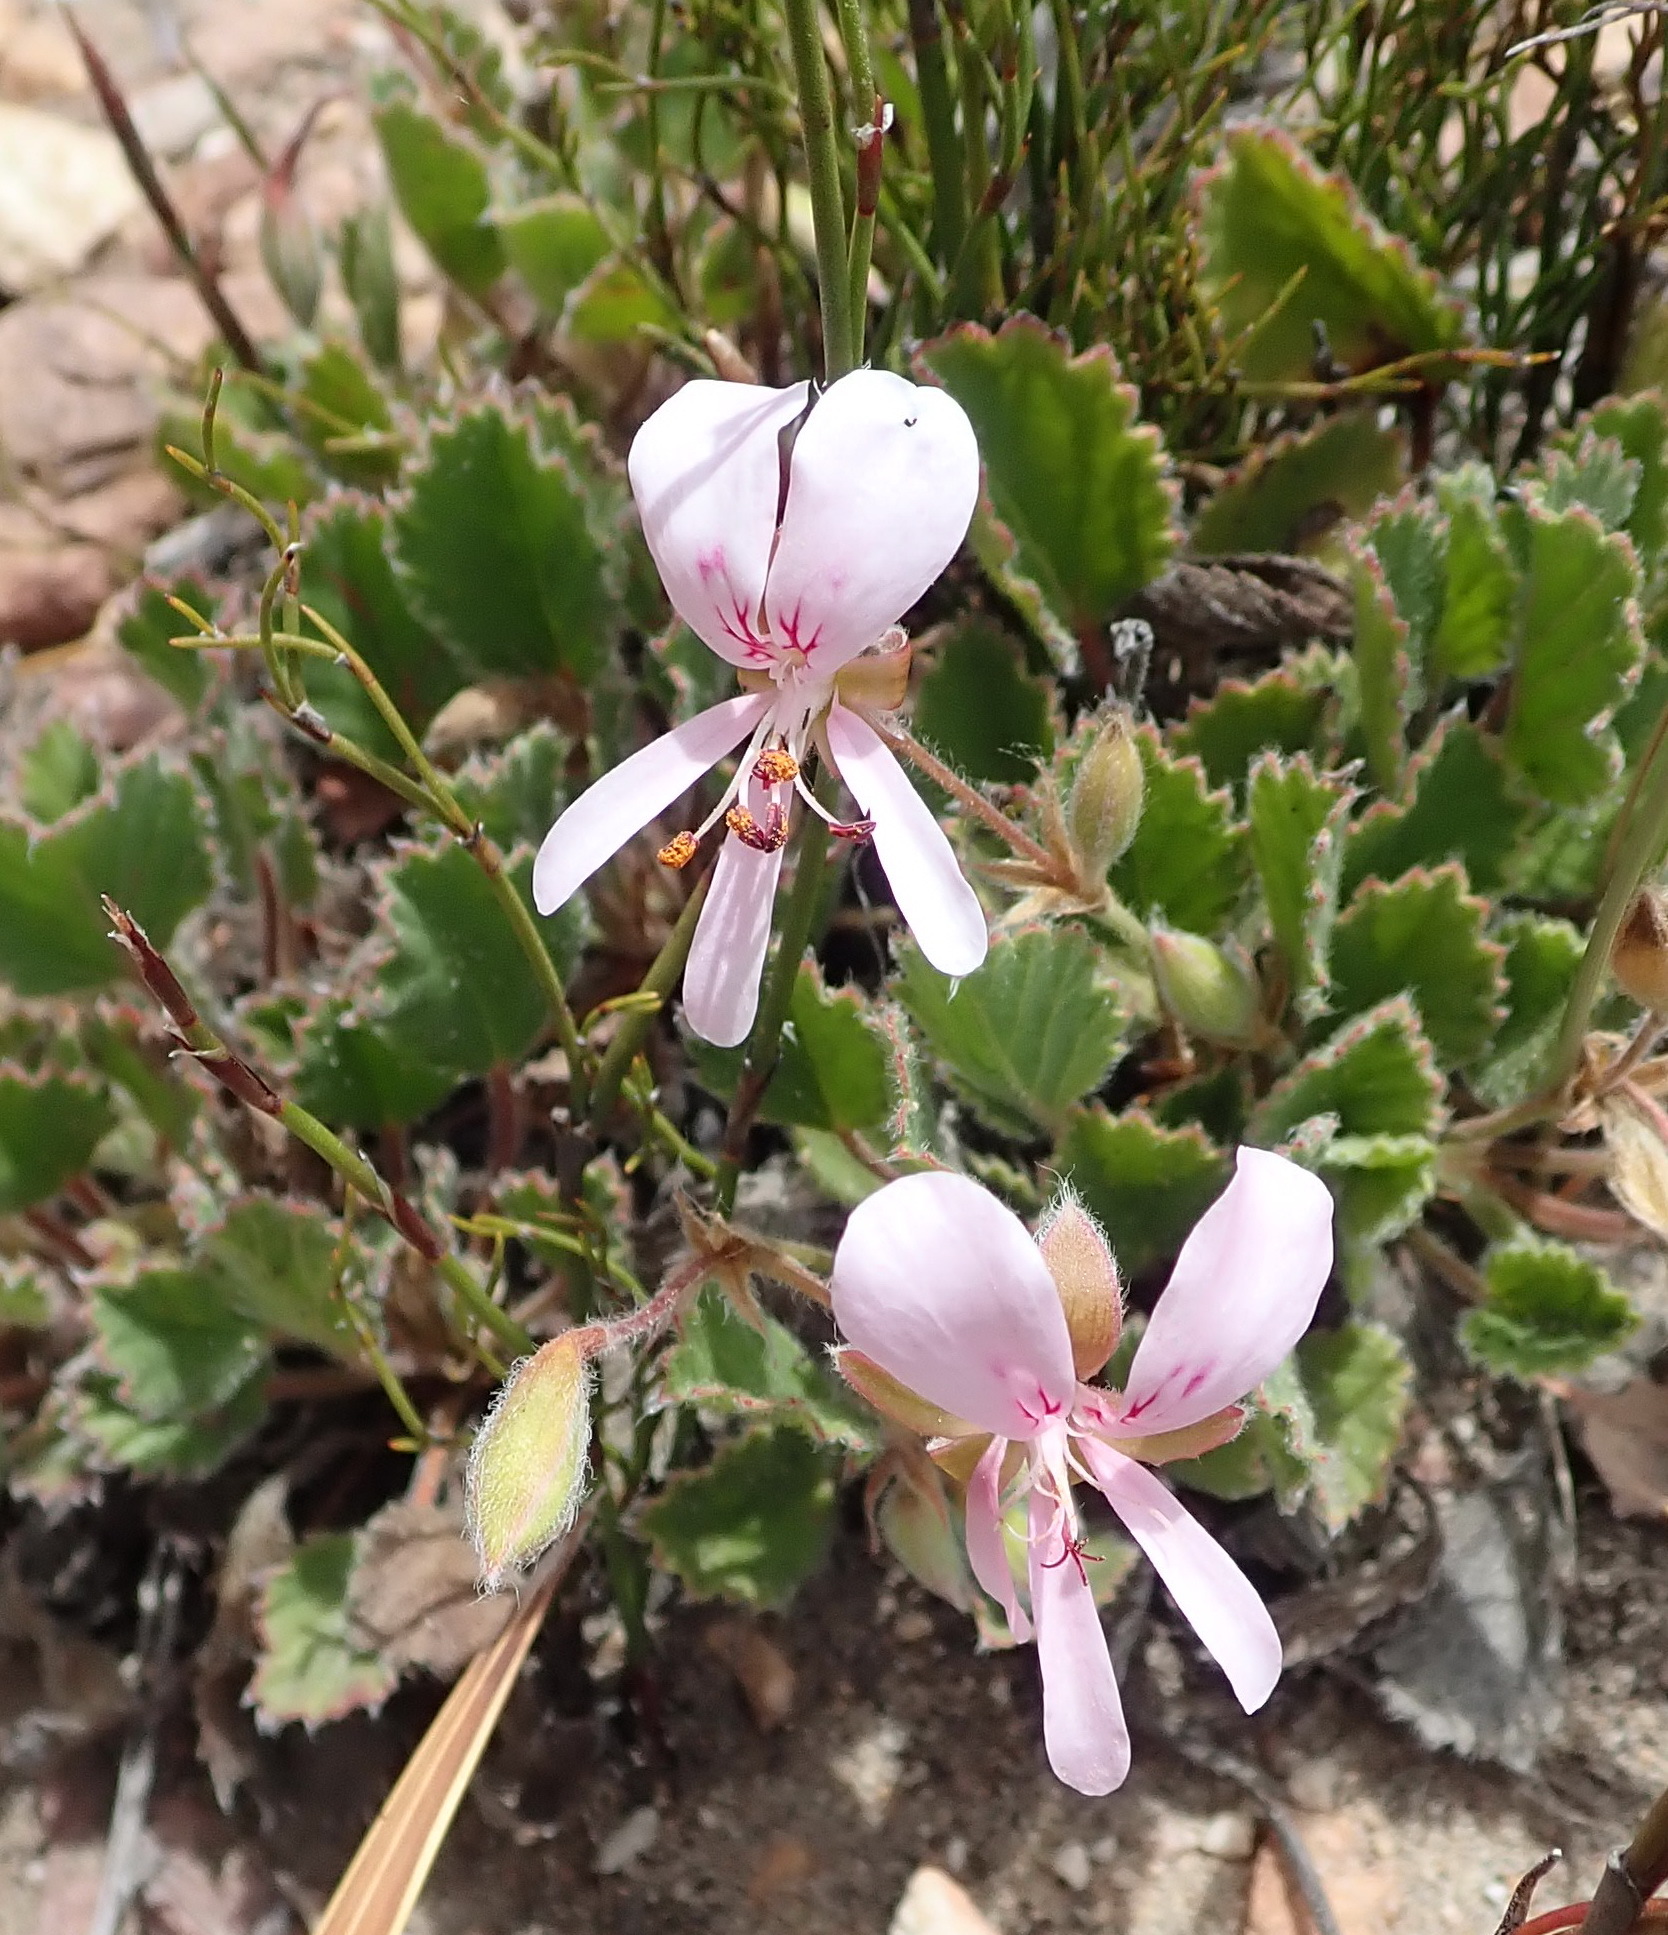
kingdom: Plantae
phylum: Tracheophyta
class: Magnoliopsida
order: Geraniales
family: Geraniaceae
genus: Pelargonium
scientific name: Pelargonium ovale
